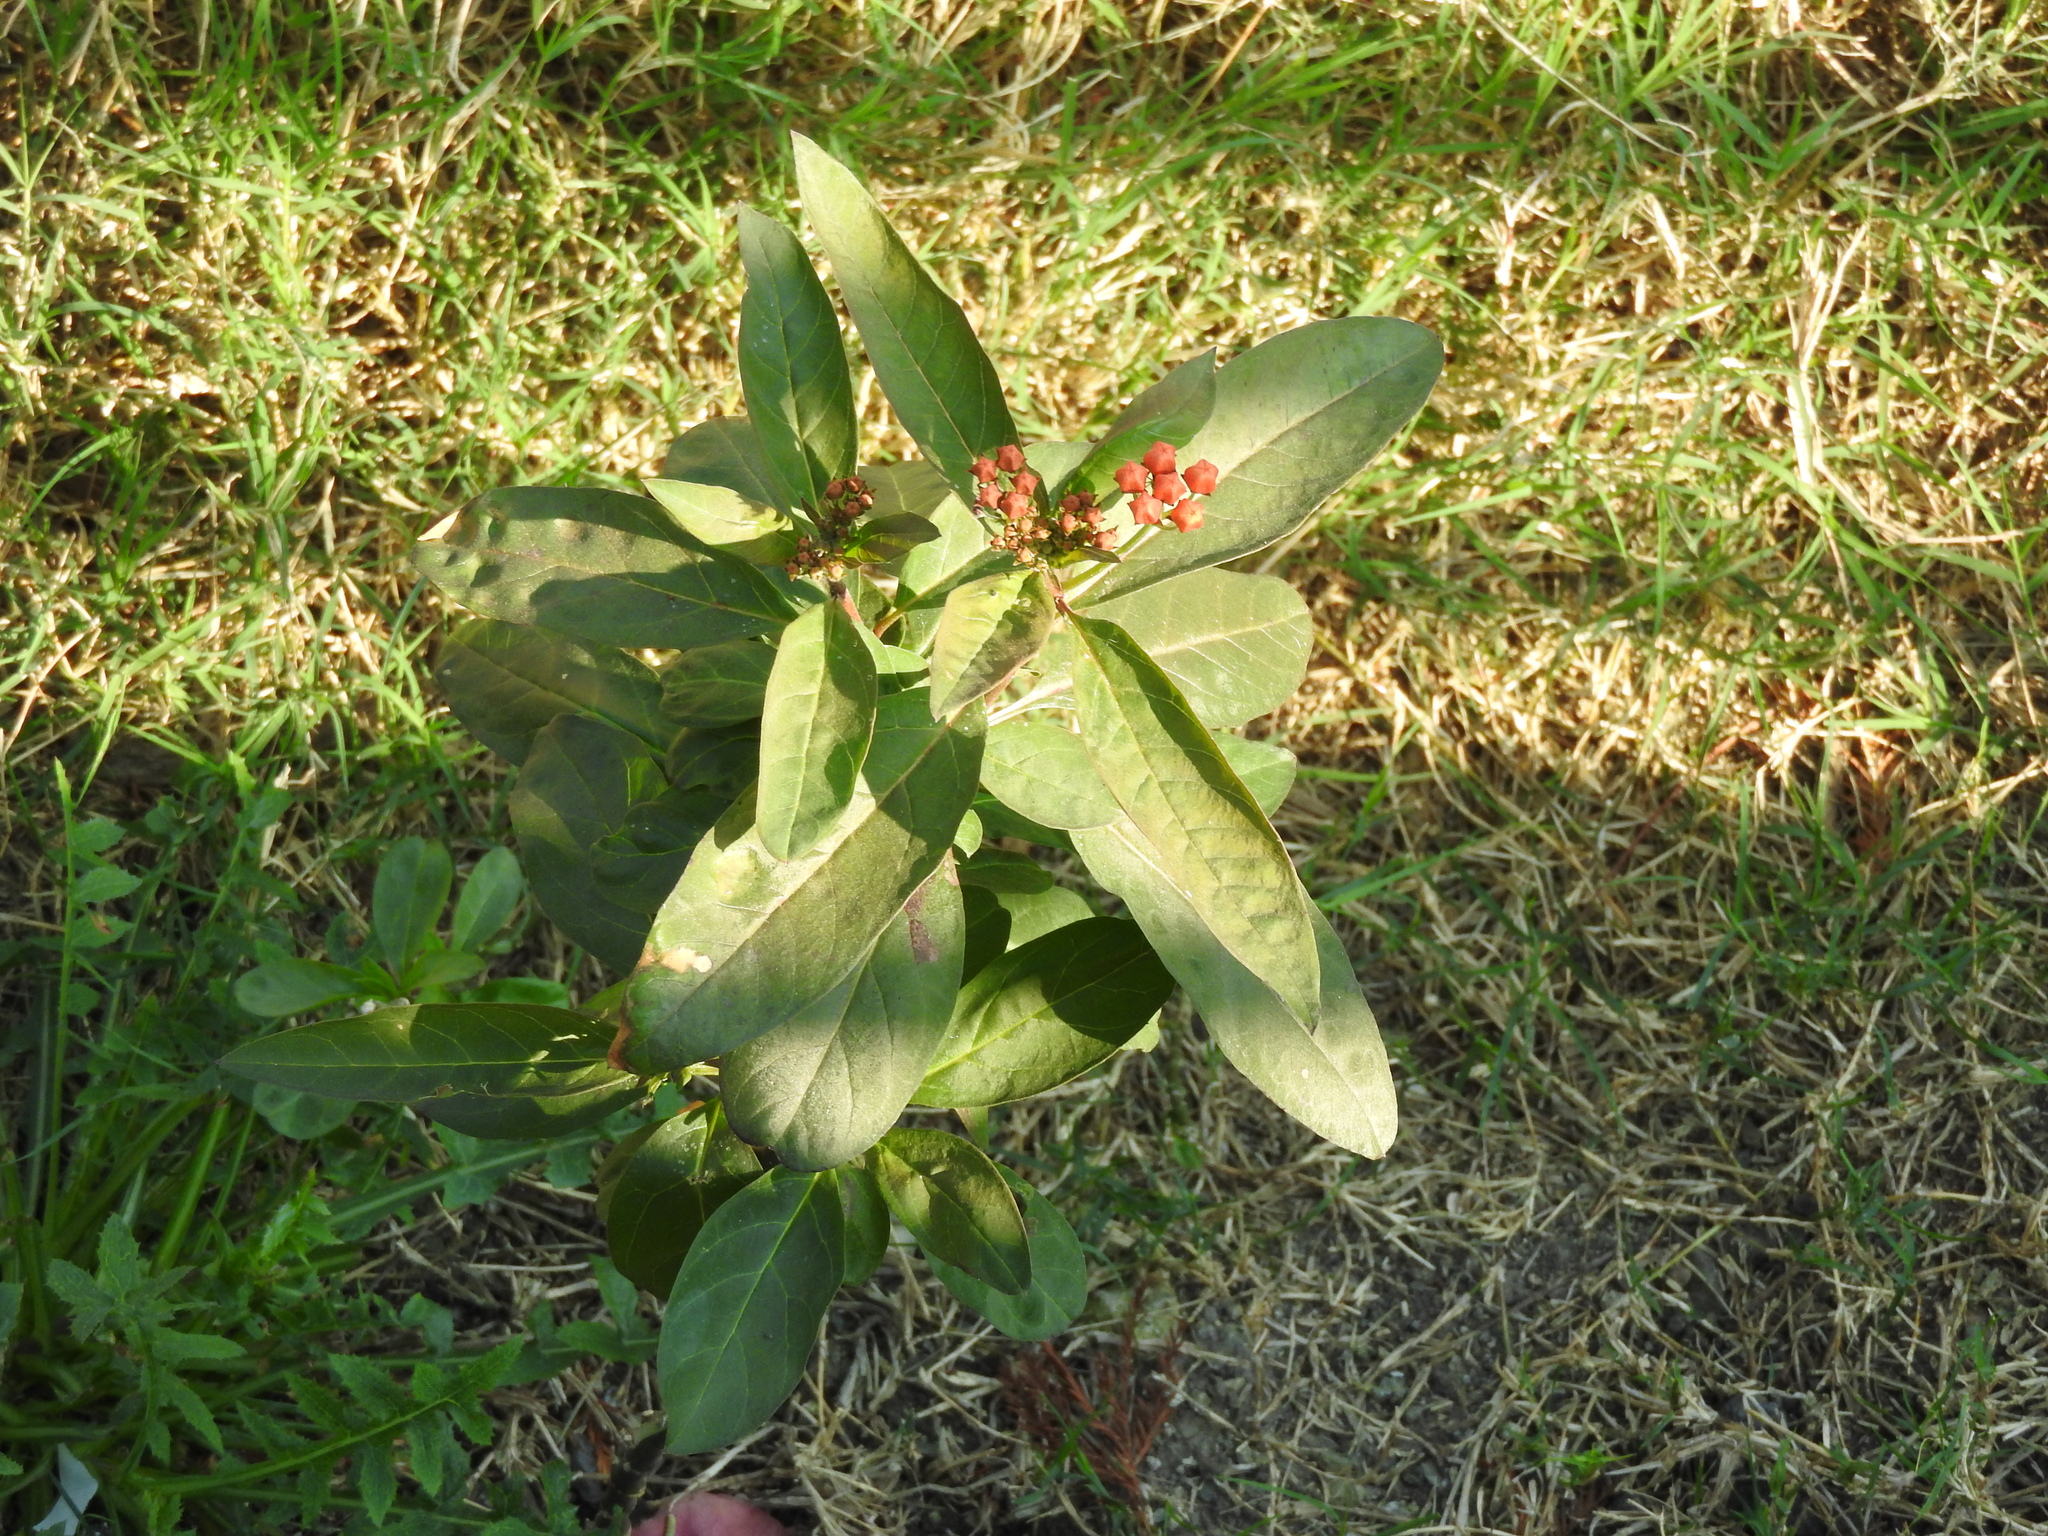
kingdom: Plantae
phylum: Tracheophyta
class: Magnoliopsida
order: Gentianales
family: Apocynaceae
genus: Asclepias
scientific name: Asclepias curassavica
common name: Bloodflower
